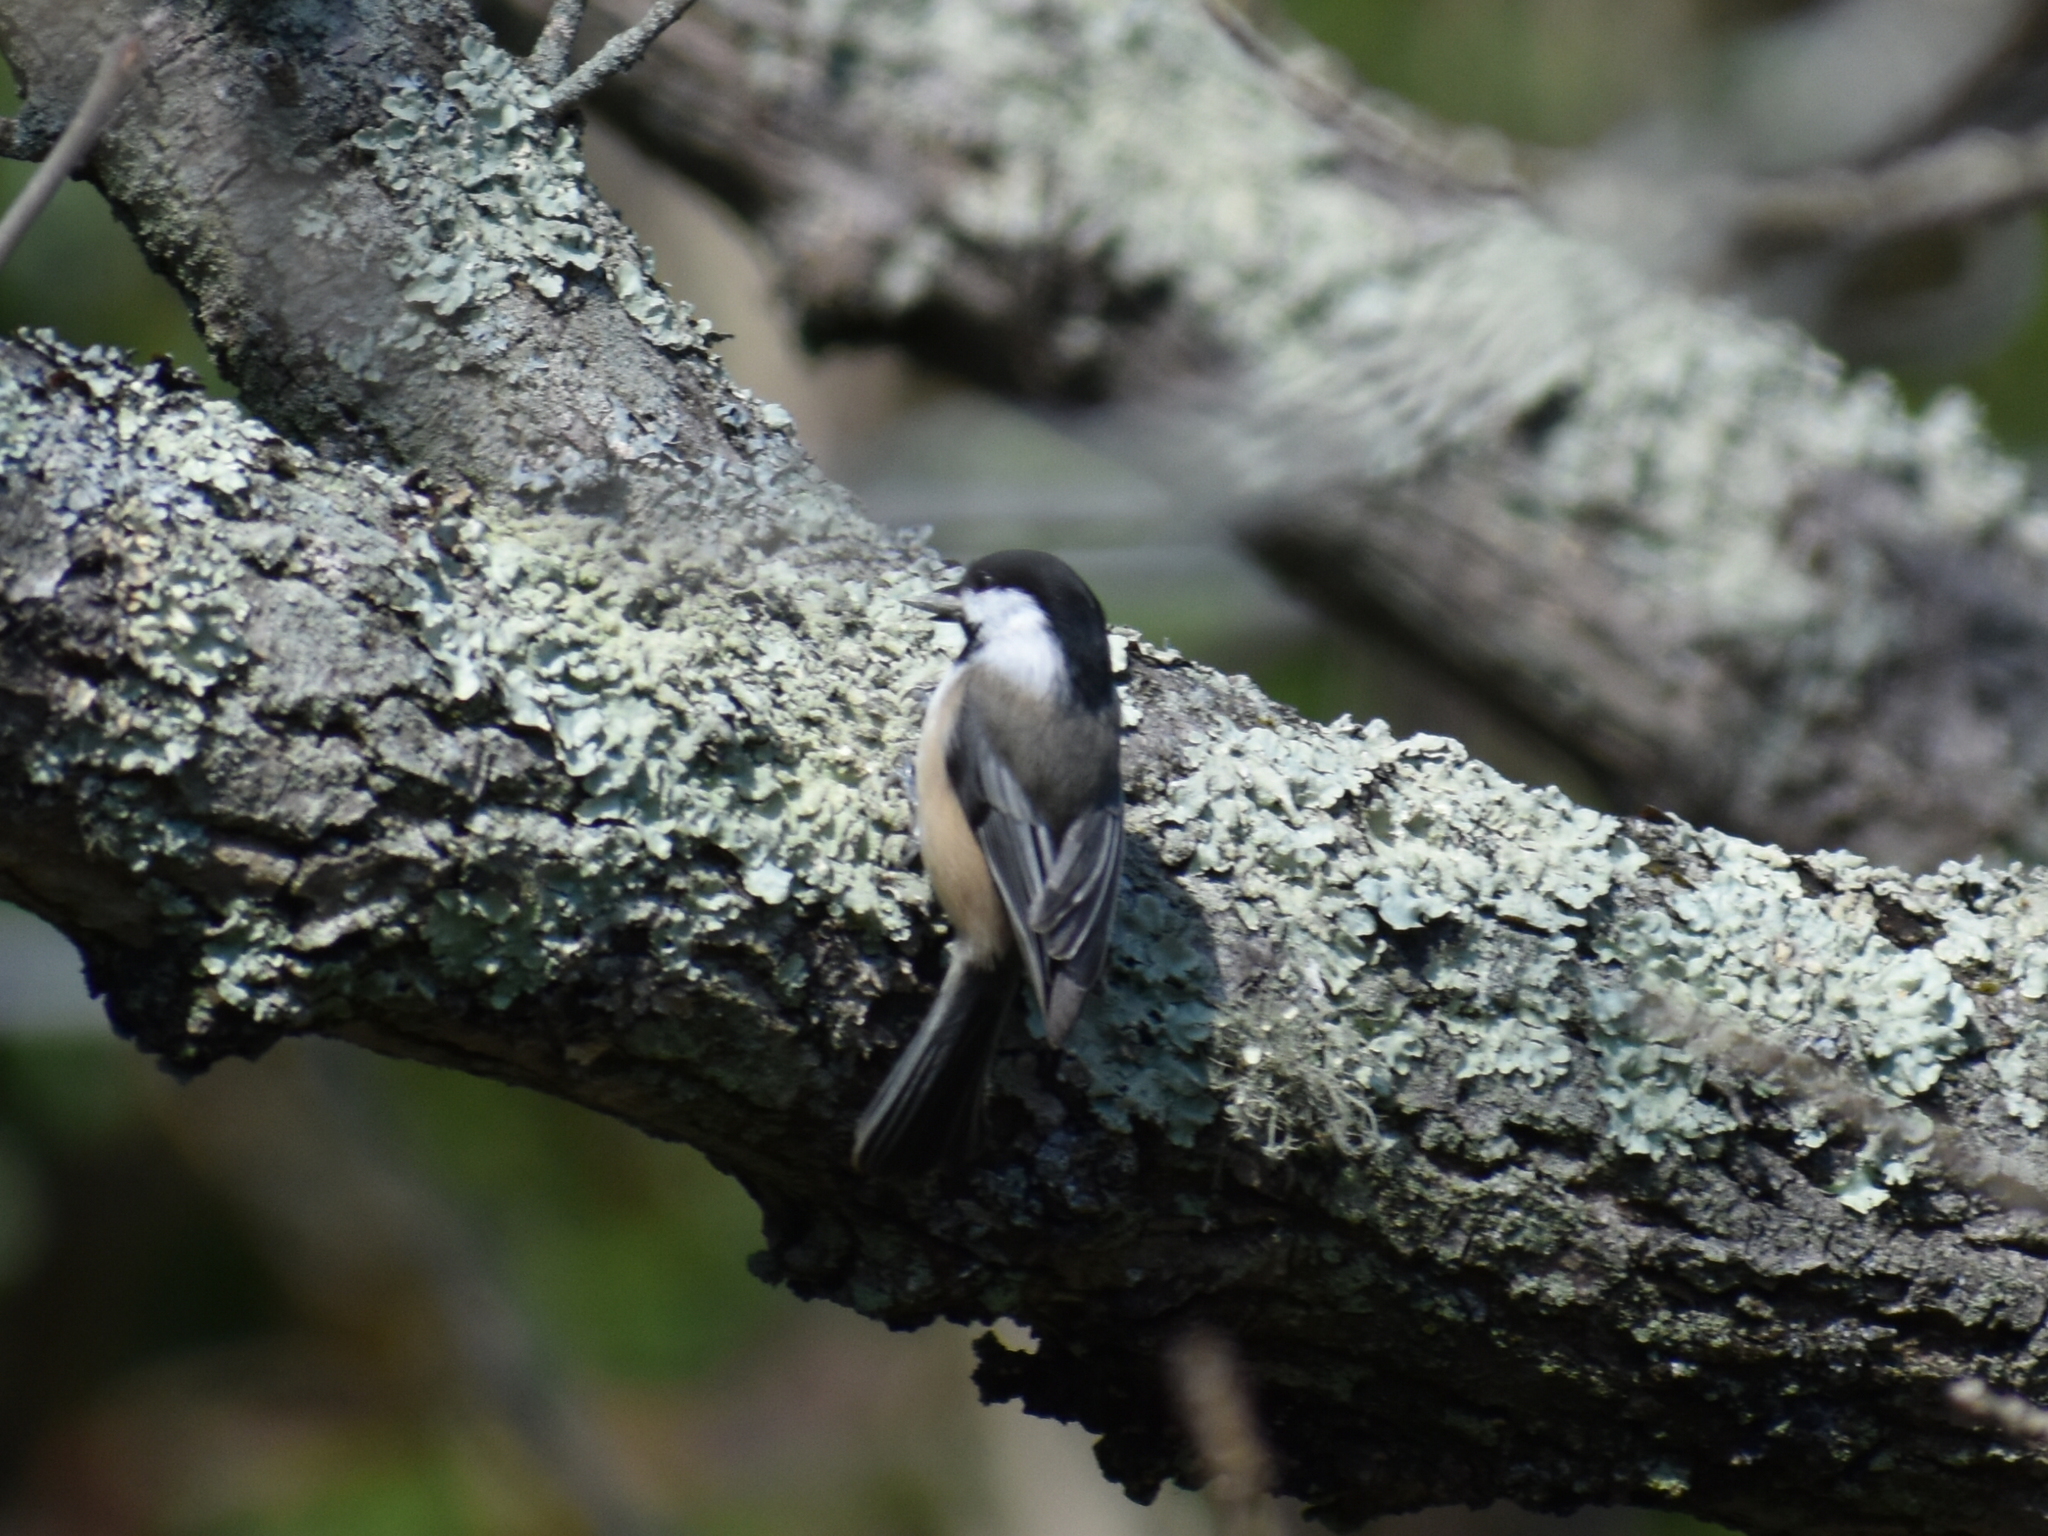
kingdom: Animalia
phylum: Chordata
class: Aves
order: Passeriformes
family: Paridae
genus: Poecile
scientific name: Poecile atricapillus
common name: Black-capped chickadee
